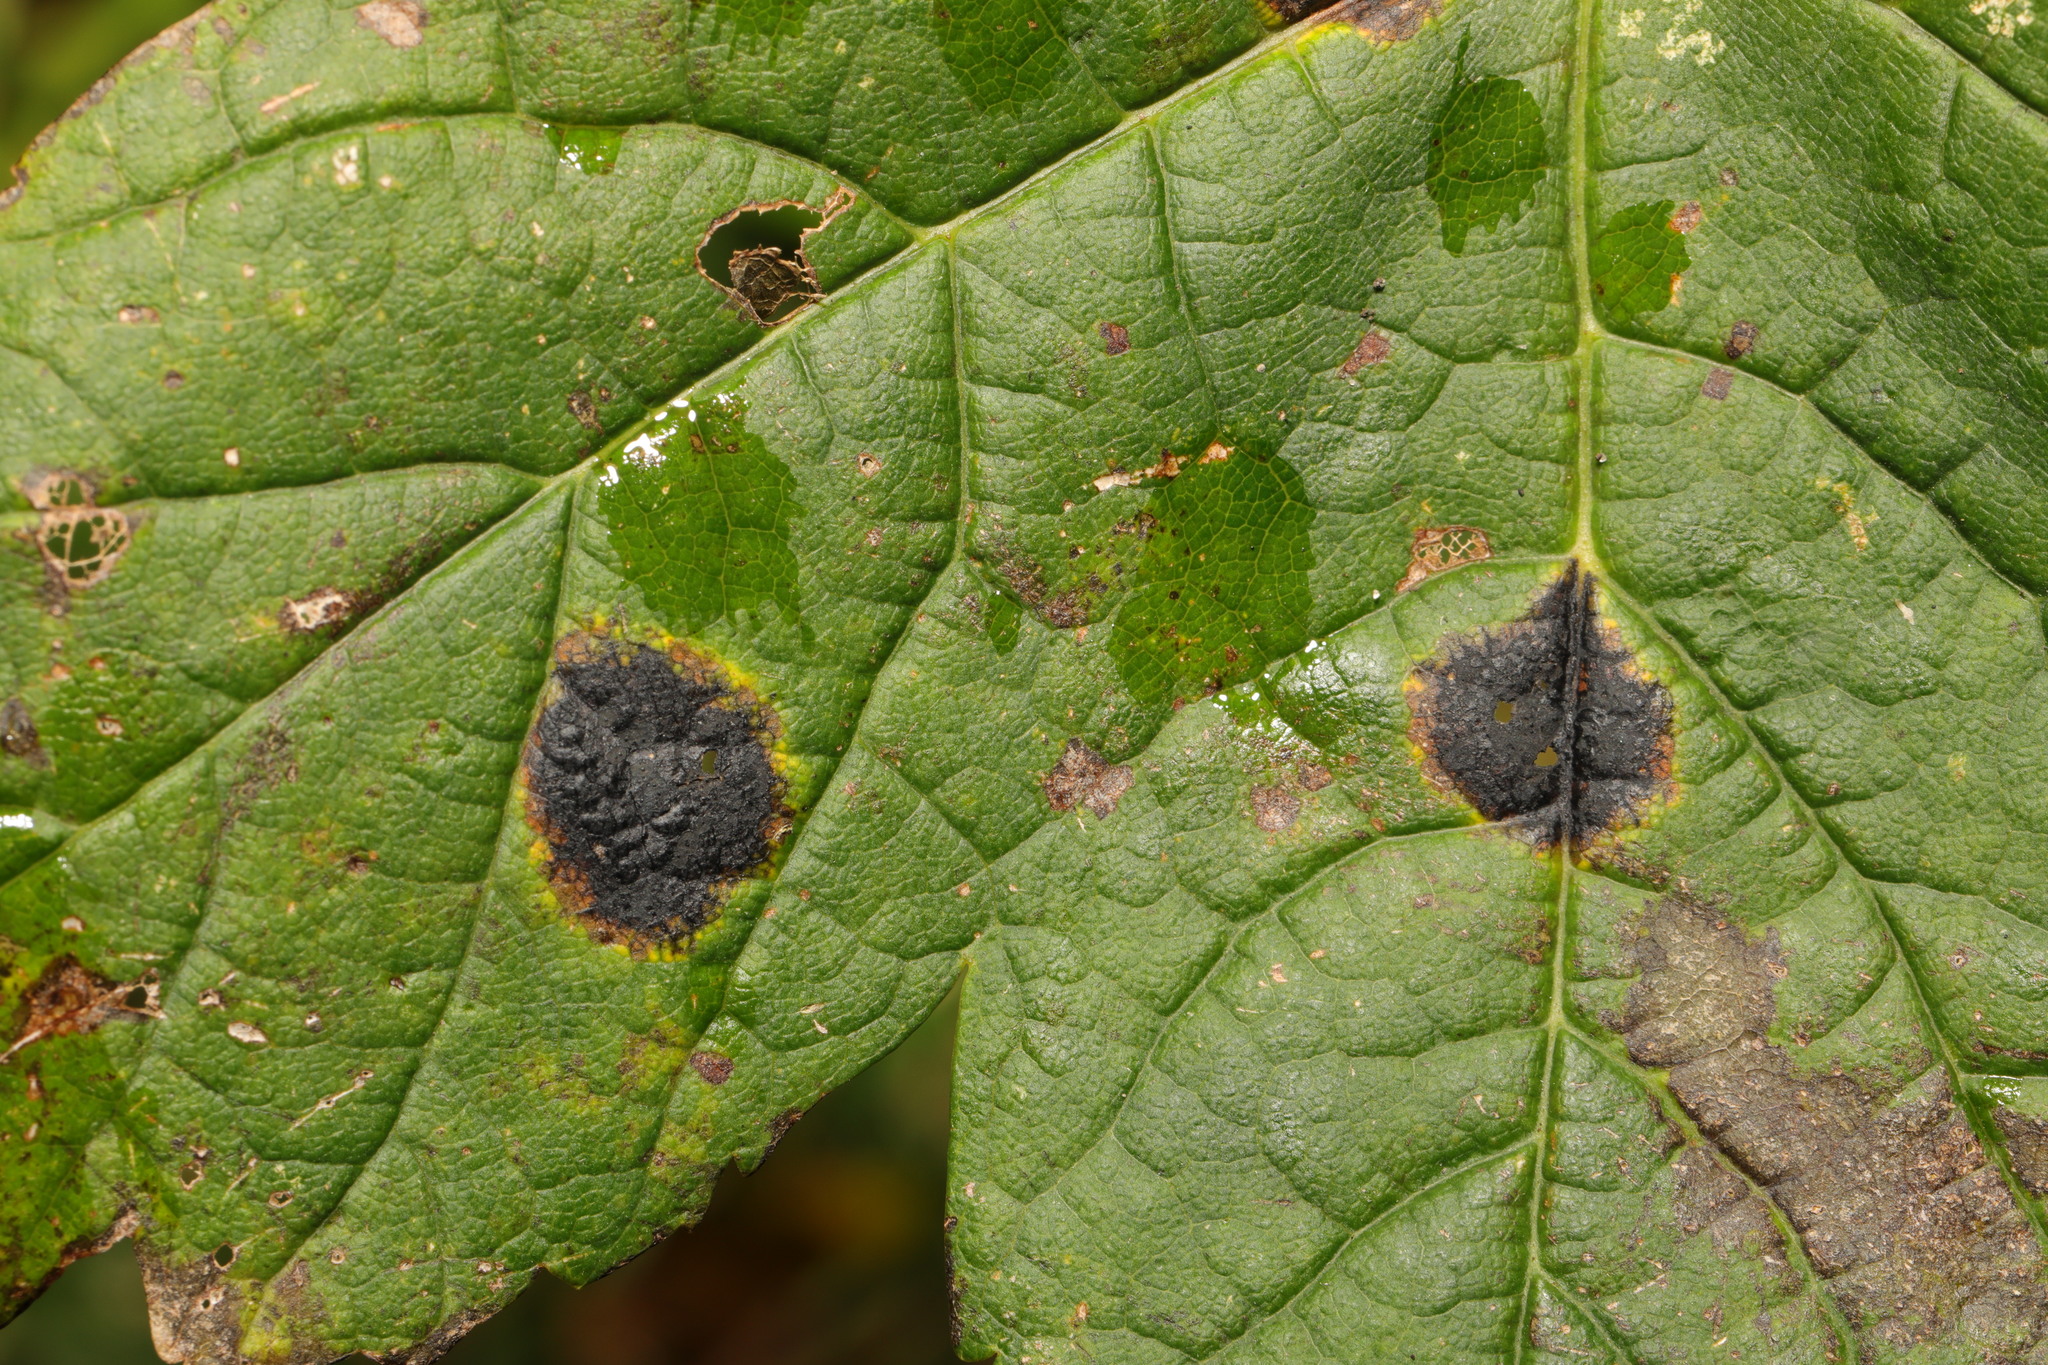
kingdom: Fungi
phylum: Ascomycota
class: Leotiomycetes
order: Rhytismatales
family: Rhytismataceae
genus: Rhytisma
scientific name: Rhytisma acerinum
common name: European tar spot
